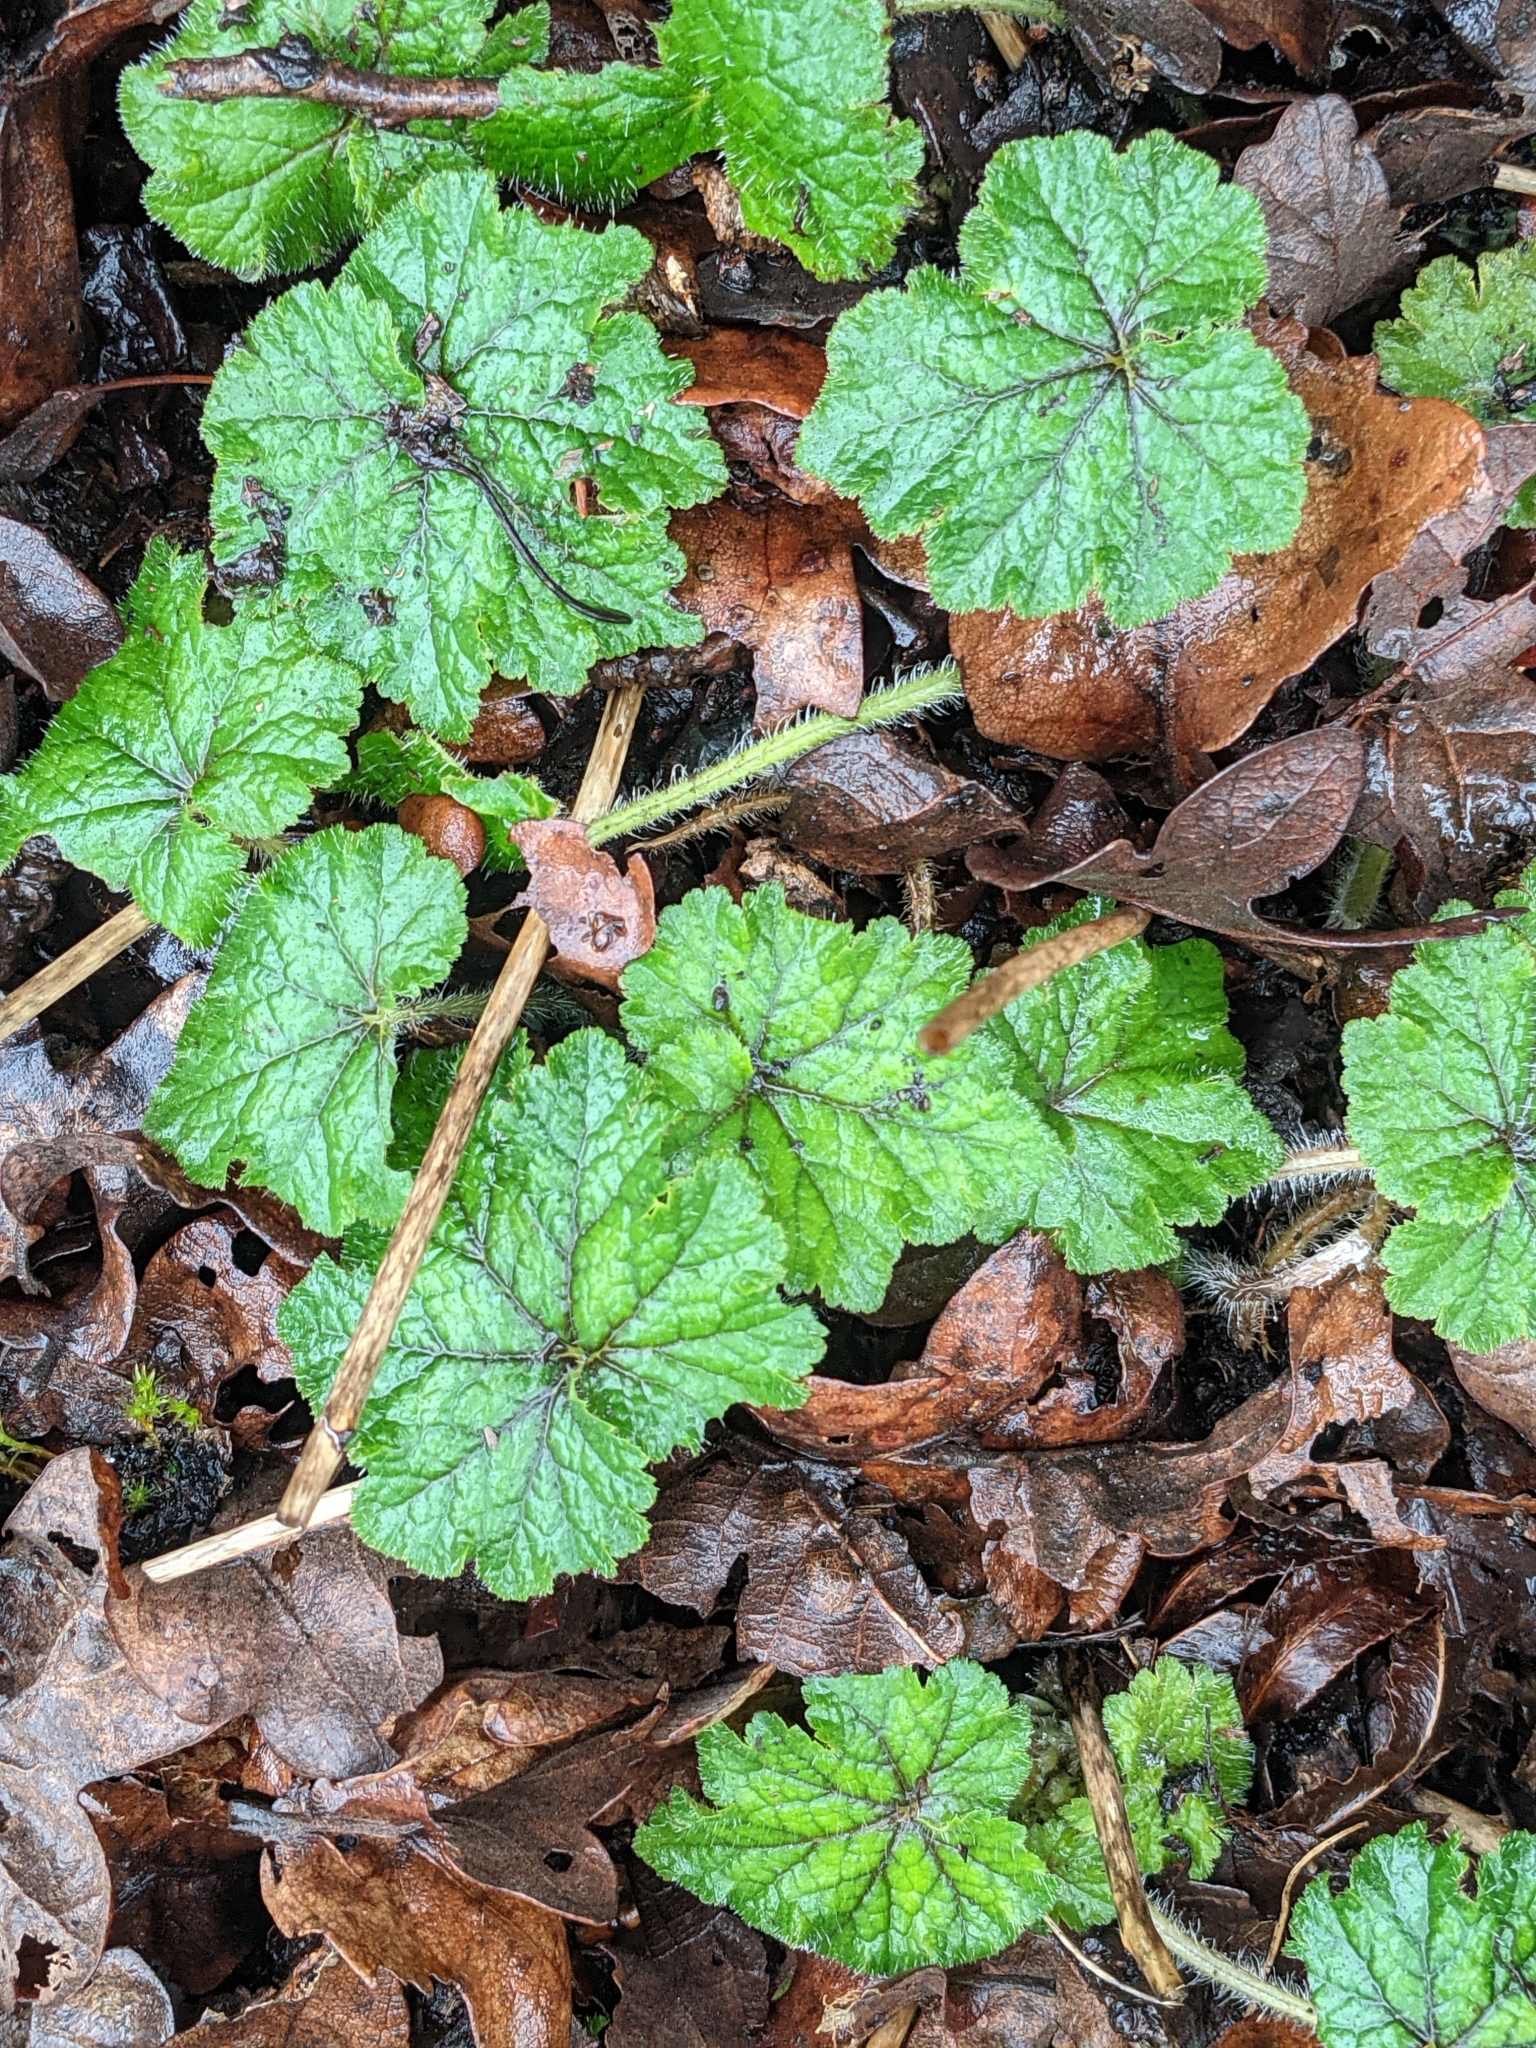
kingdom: Plantae
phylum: Tracheophyta
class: Magnoliopsida
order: Saxifragales
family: Saxifragaceae
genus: Tellima
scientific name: Tellima grandiflora
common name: Fringecups
